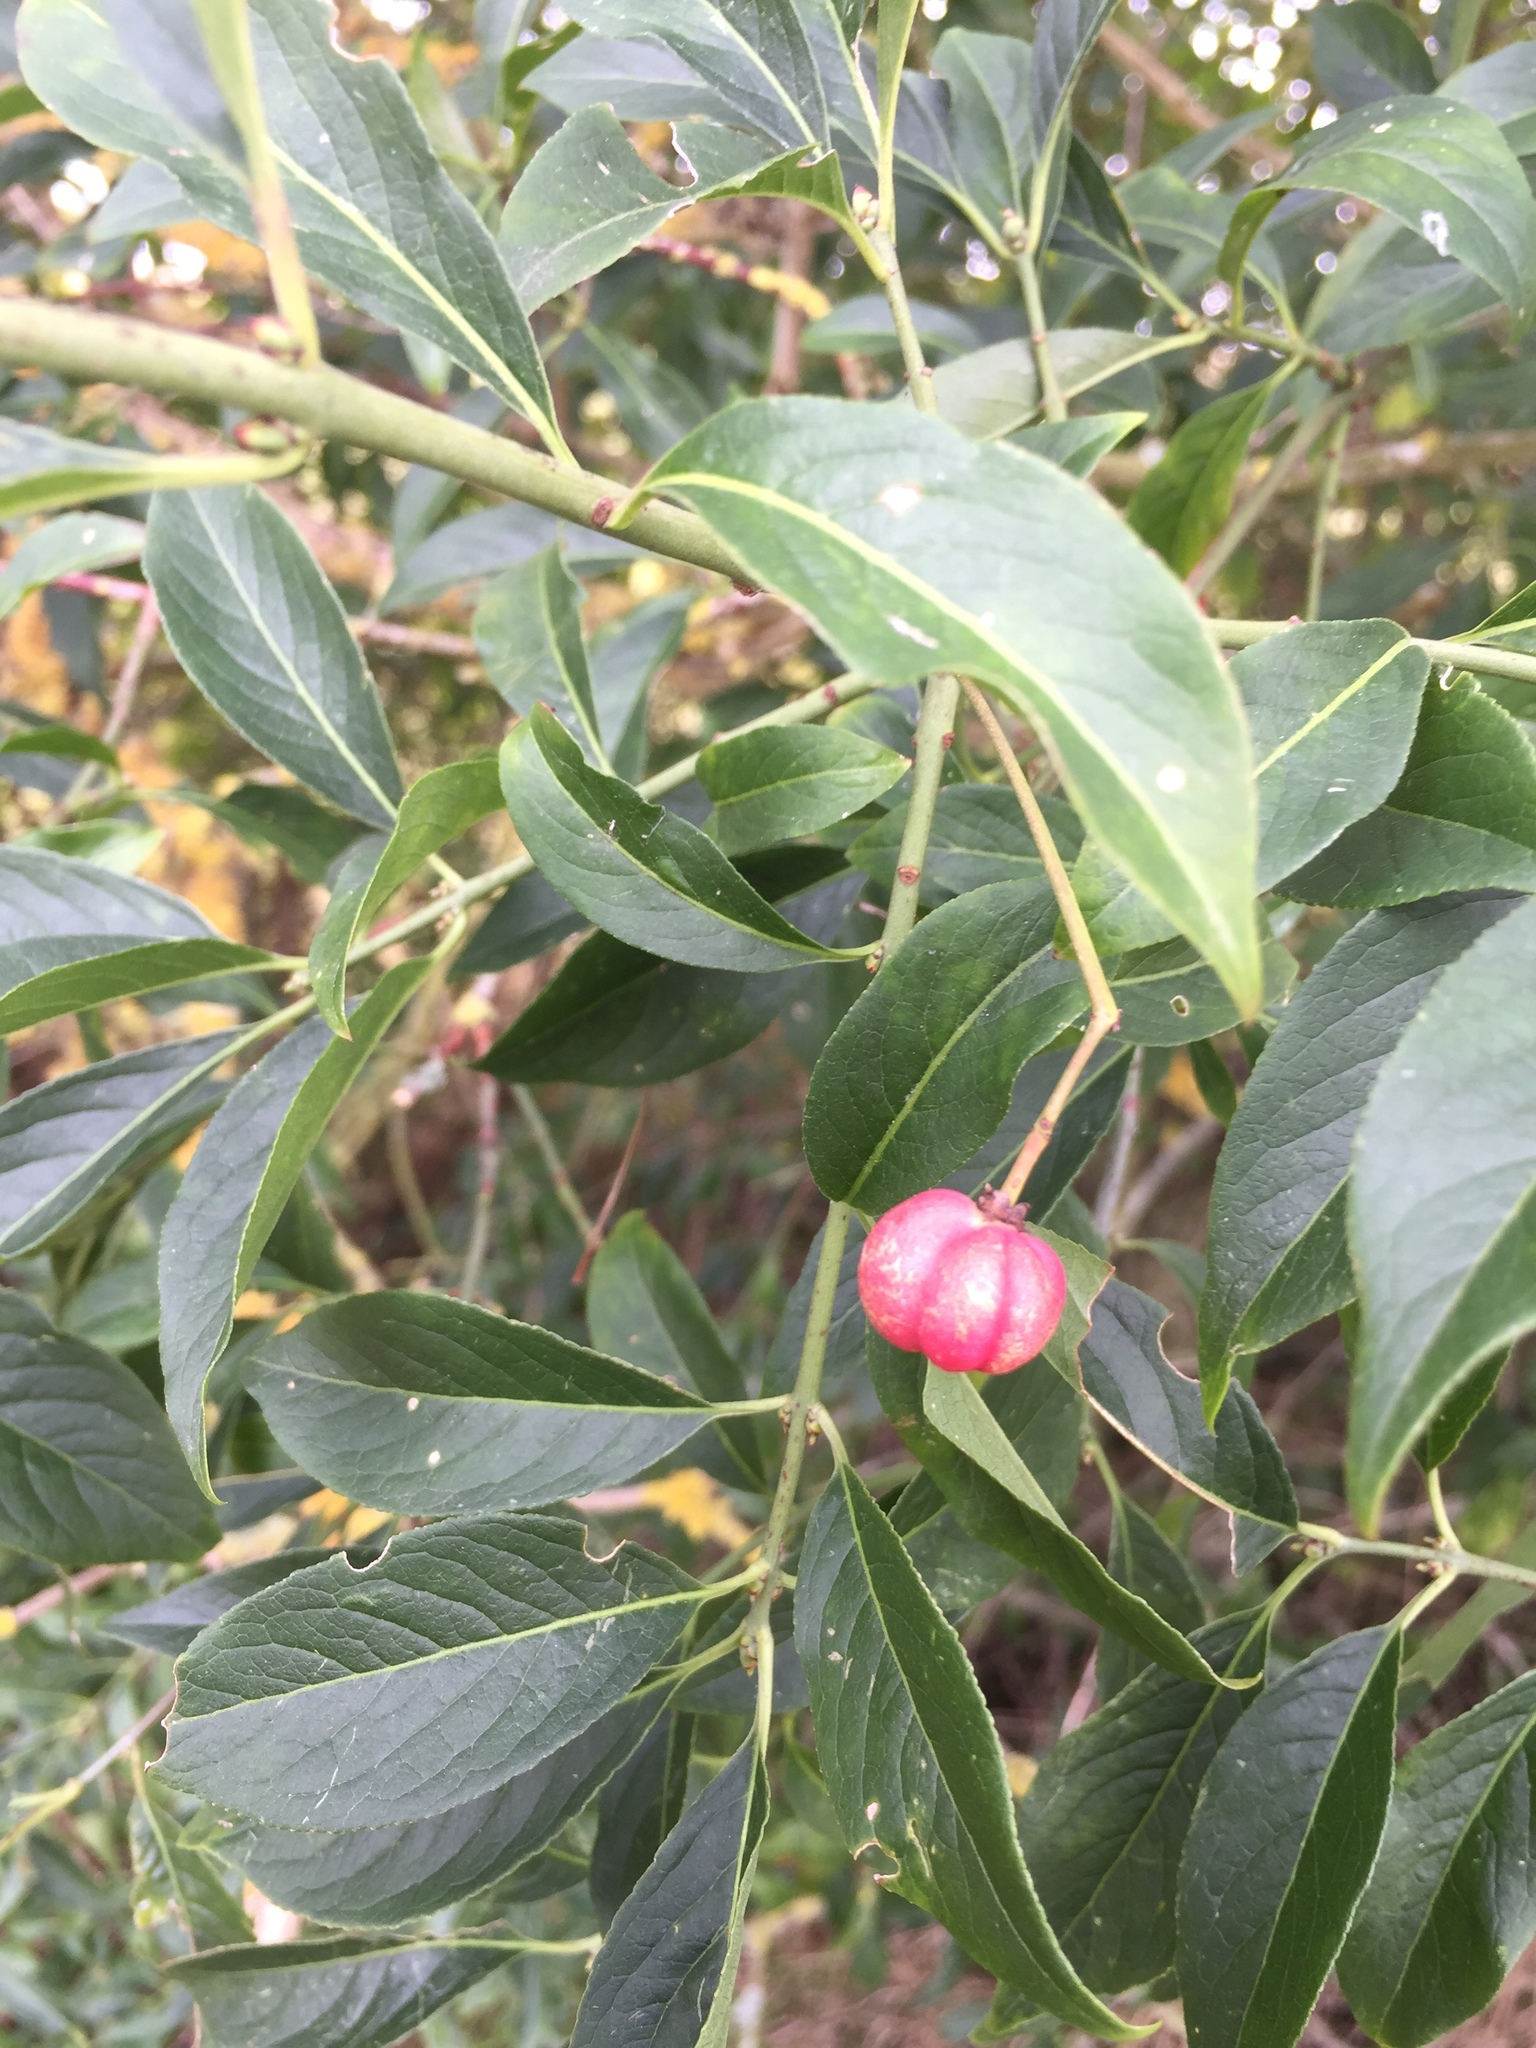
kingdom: Plantae
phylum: Tracheophyta
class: Magnoliopsida
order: Celastrales
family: Celastraceae
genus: Euonymus
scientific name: Euonymus europaeus
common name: Spindle
